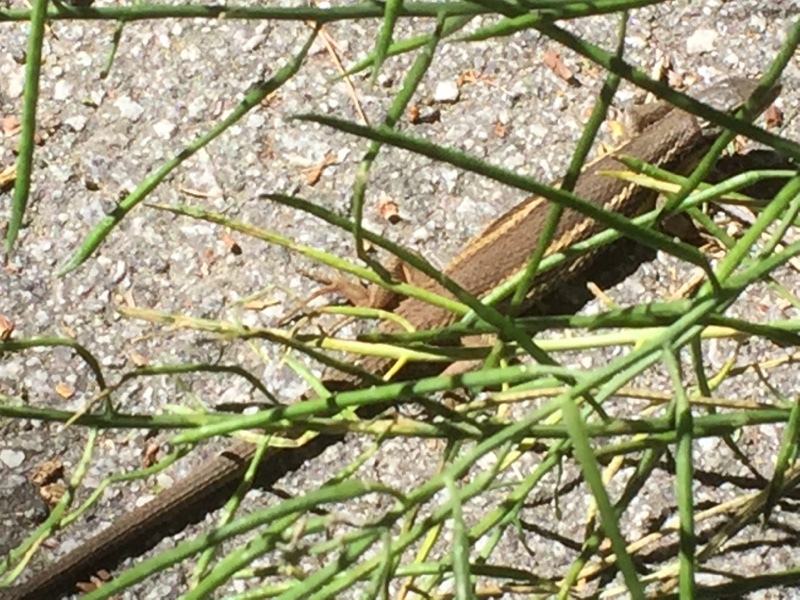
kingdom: Animalia
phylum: Chordata
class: Squamata
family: Lacertidae
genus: Psammodromus
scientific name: Psammodromus algirus
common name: Algerian psammodromus
